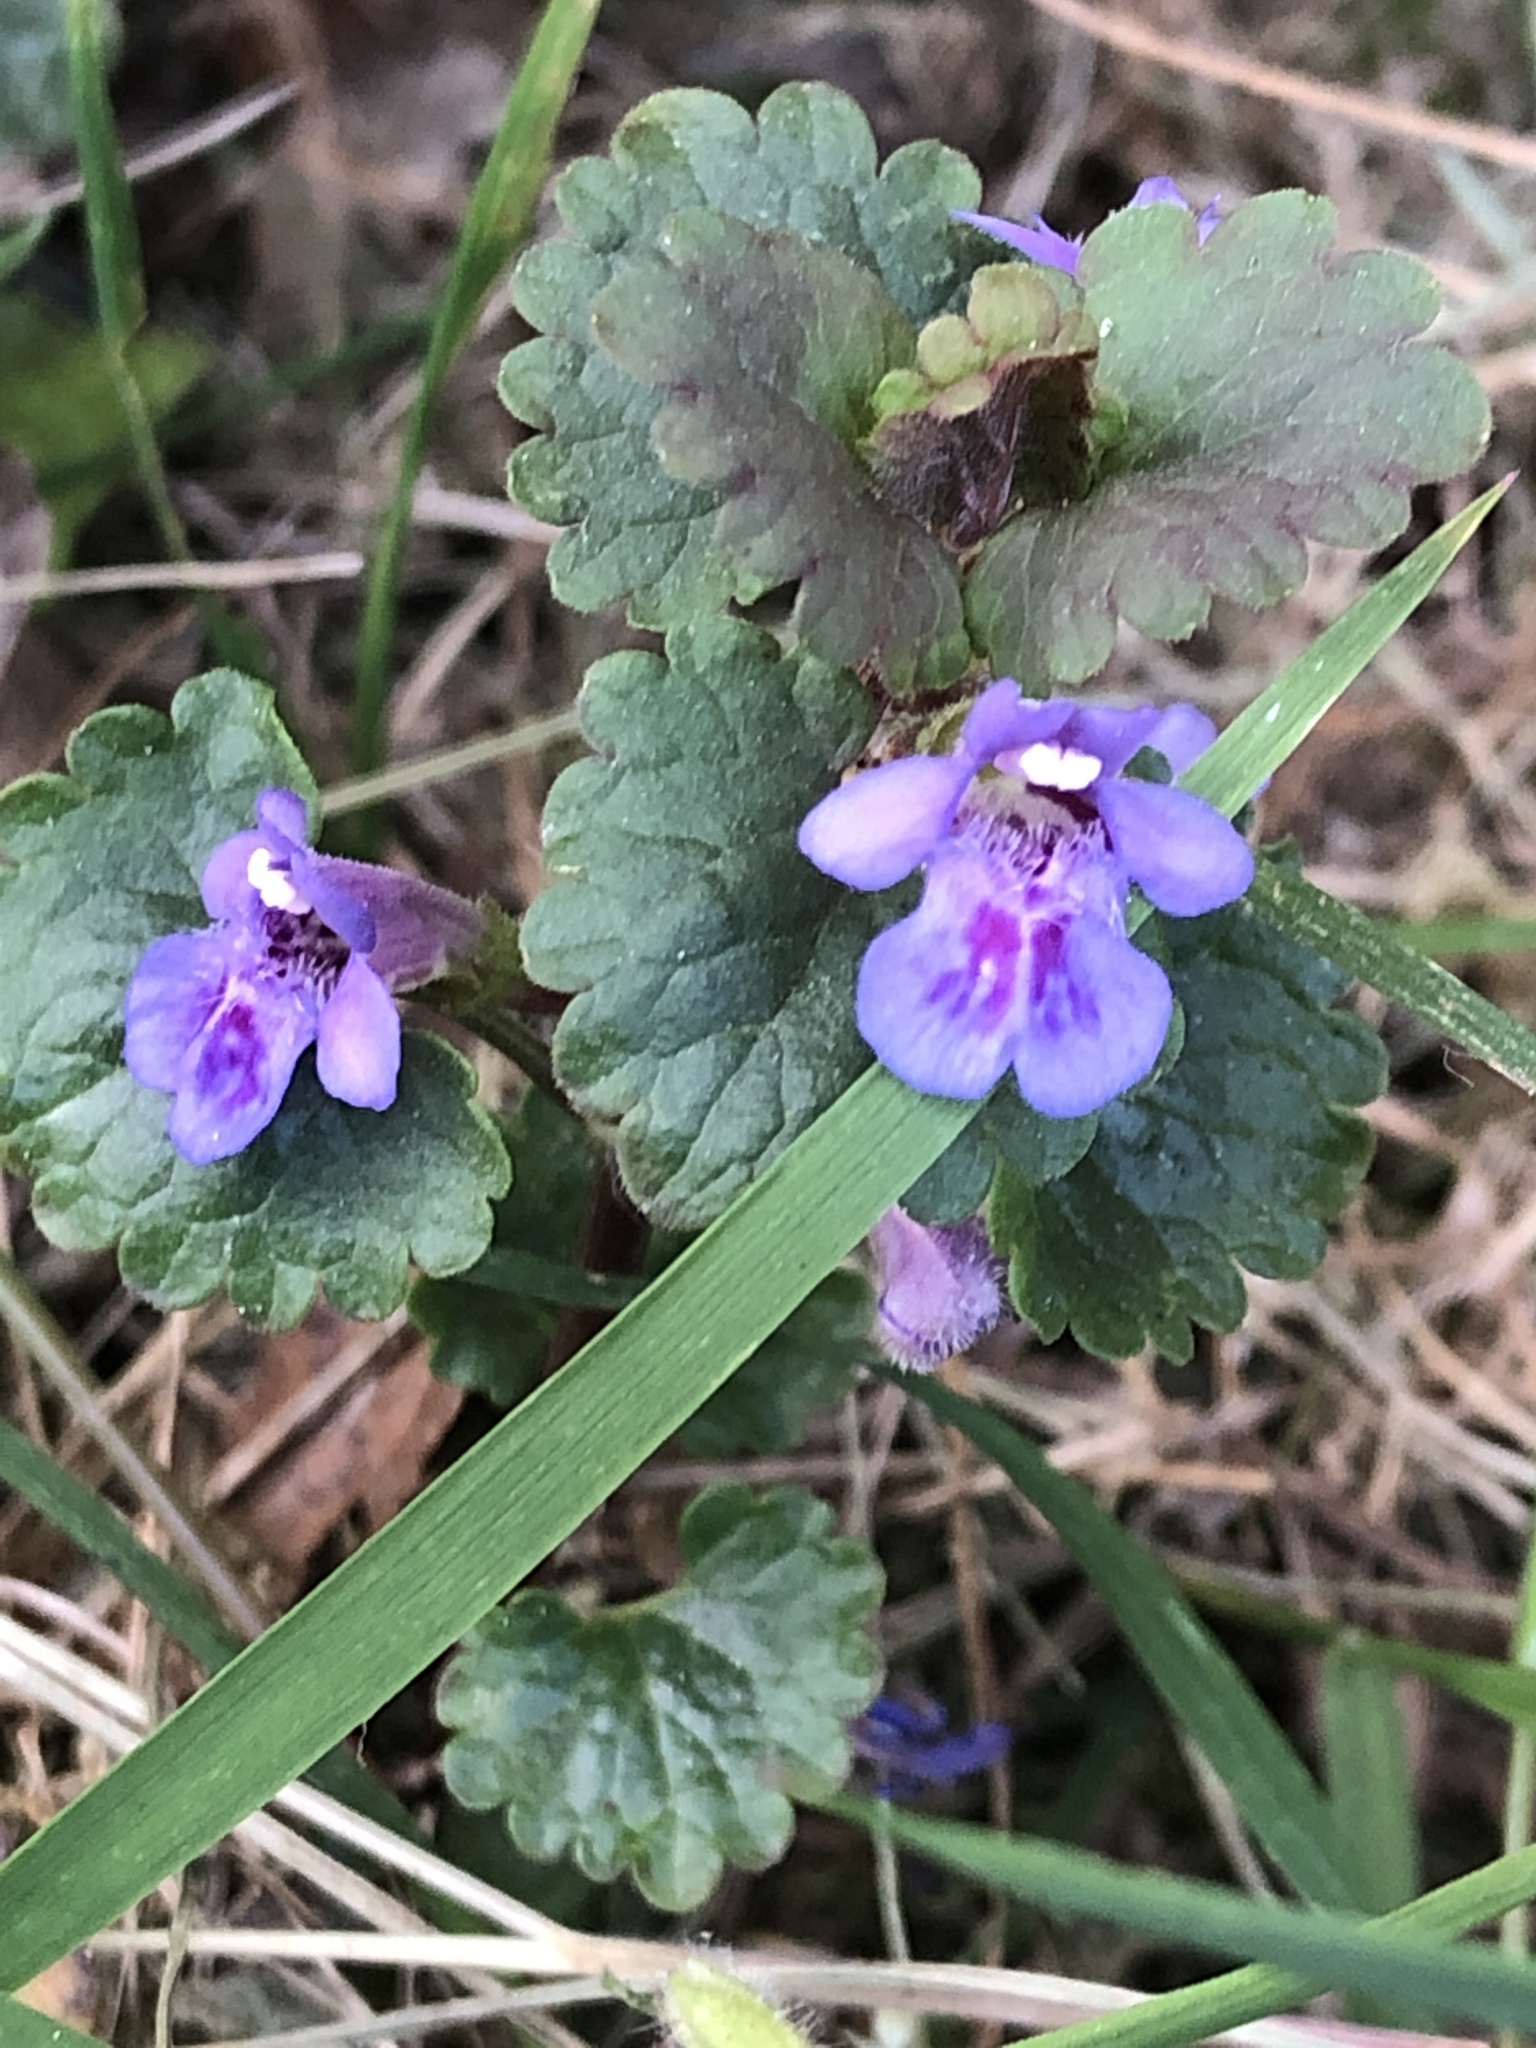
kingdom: Plantae
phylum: Tracheophyta
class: Magnoliopsida
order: Lamiales
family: Lamiaceae
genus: Glechoma
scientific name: Glechoma hederacea
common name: Ground ivy
